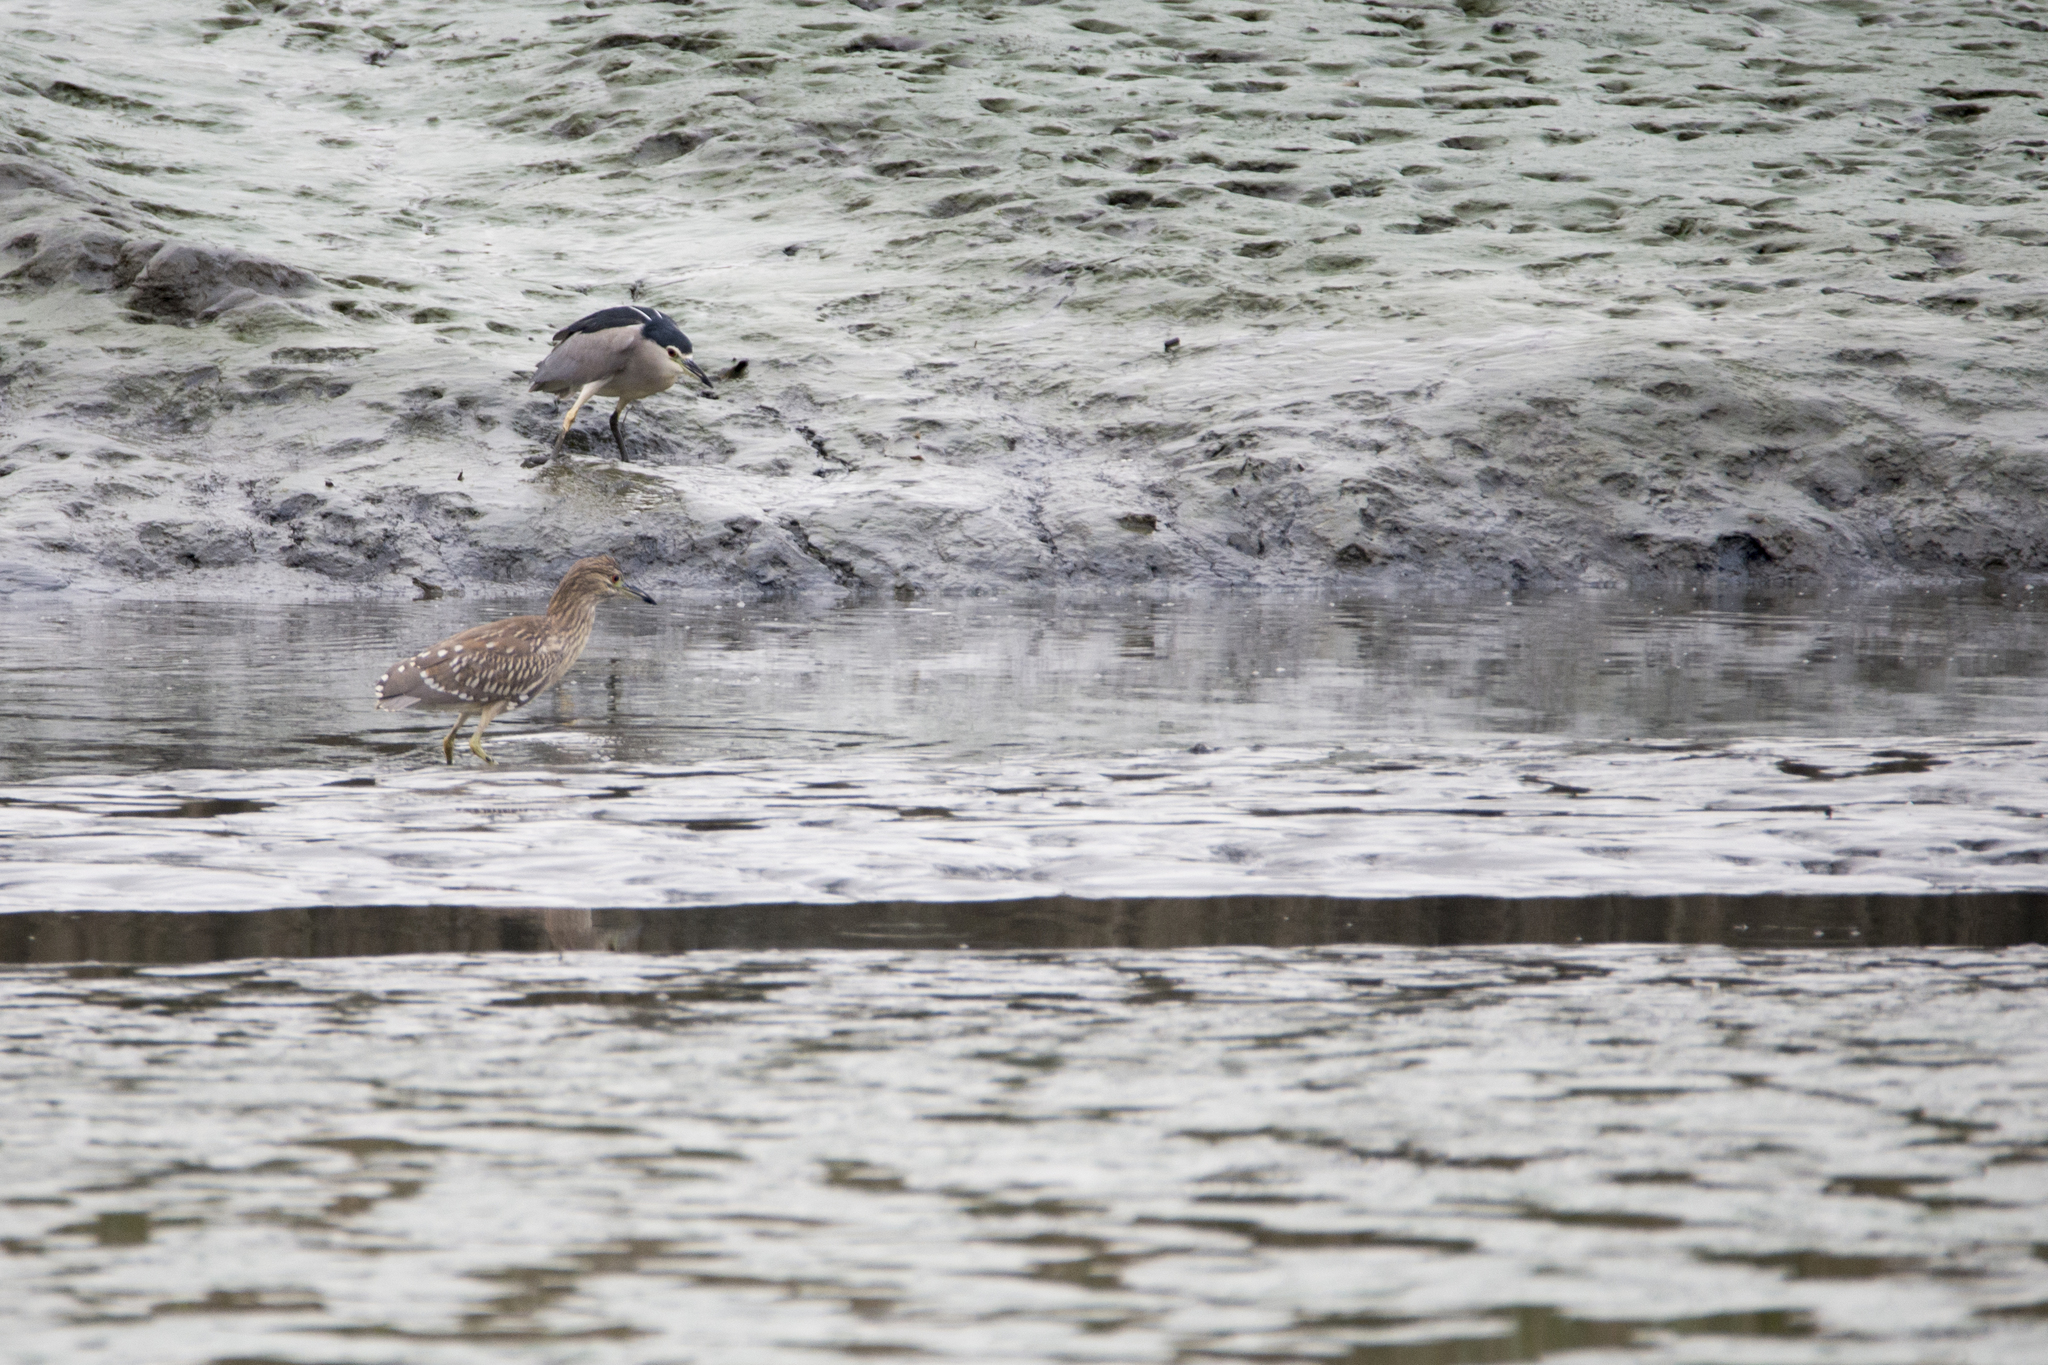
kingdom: Animalia
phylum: Chordata
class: Aves
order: Pelecaniformes
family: Ardeidae
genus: Nycticorax
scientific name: Nycticorax nycticorax
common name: Black-crowned night heron
